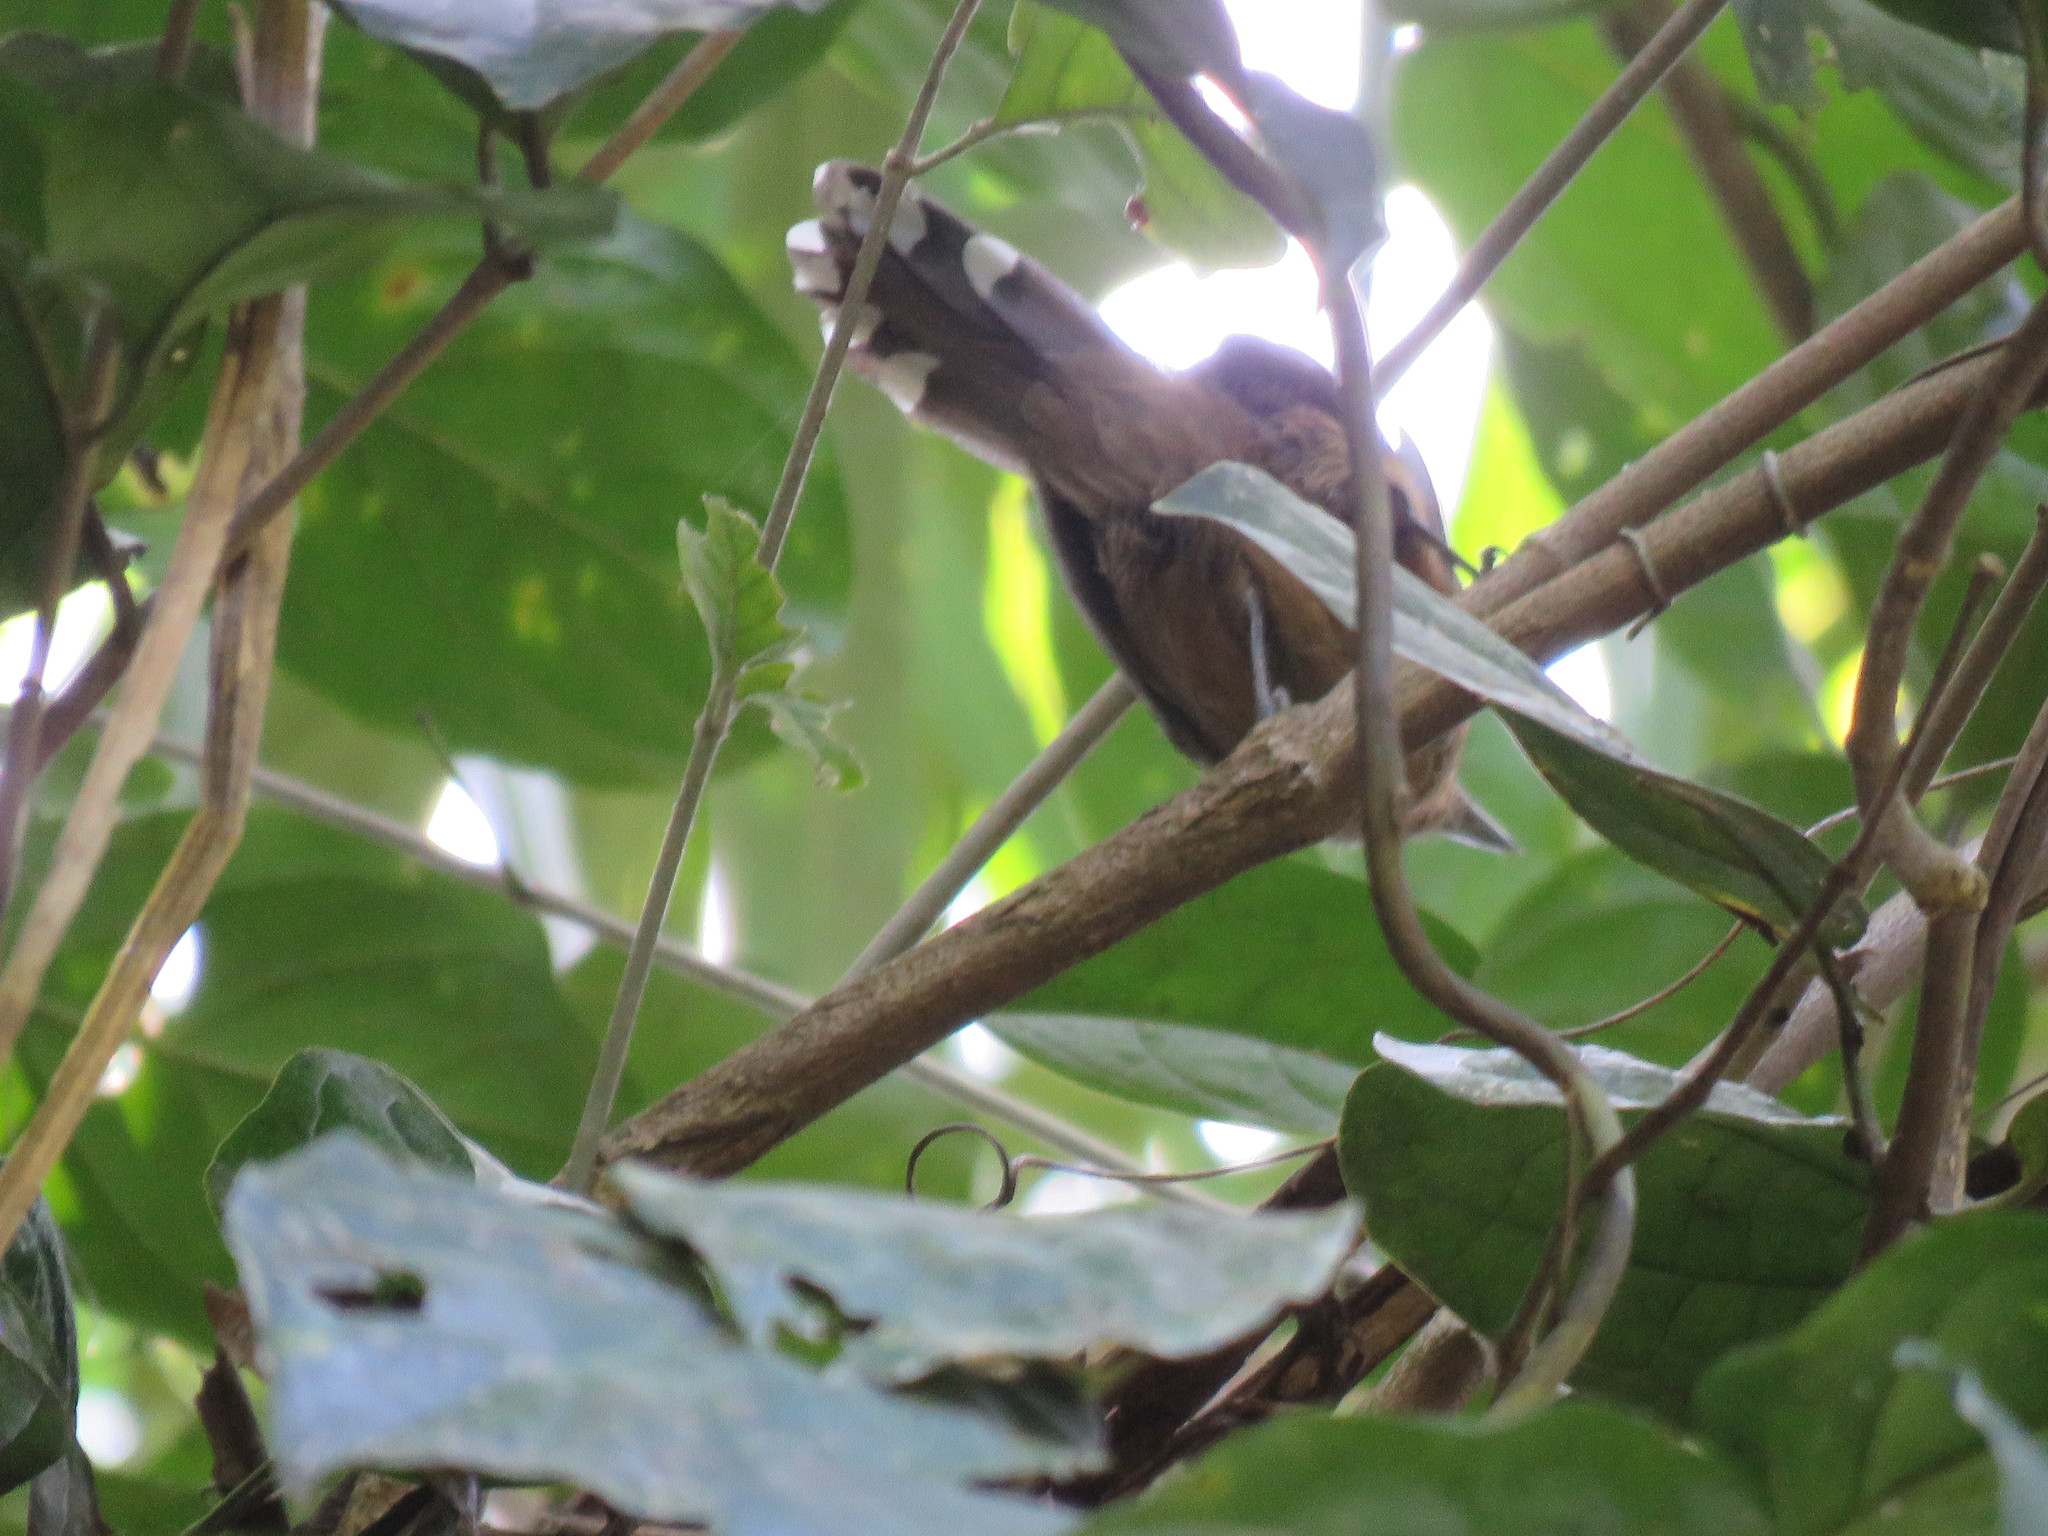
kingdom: Animalia
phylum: Chordata
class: Aves
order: Passeriformes
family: Thamnophilidae
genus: Cercomacra
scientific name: Cercomacra cinerascens
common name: Grey antbird
